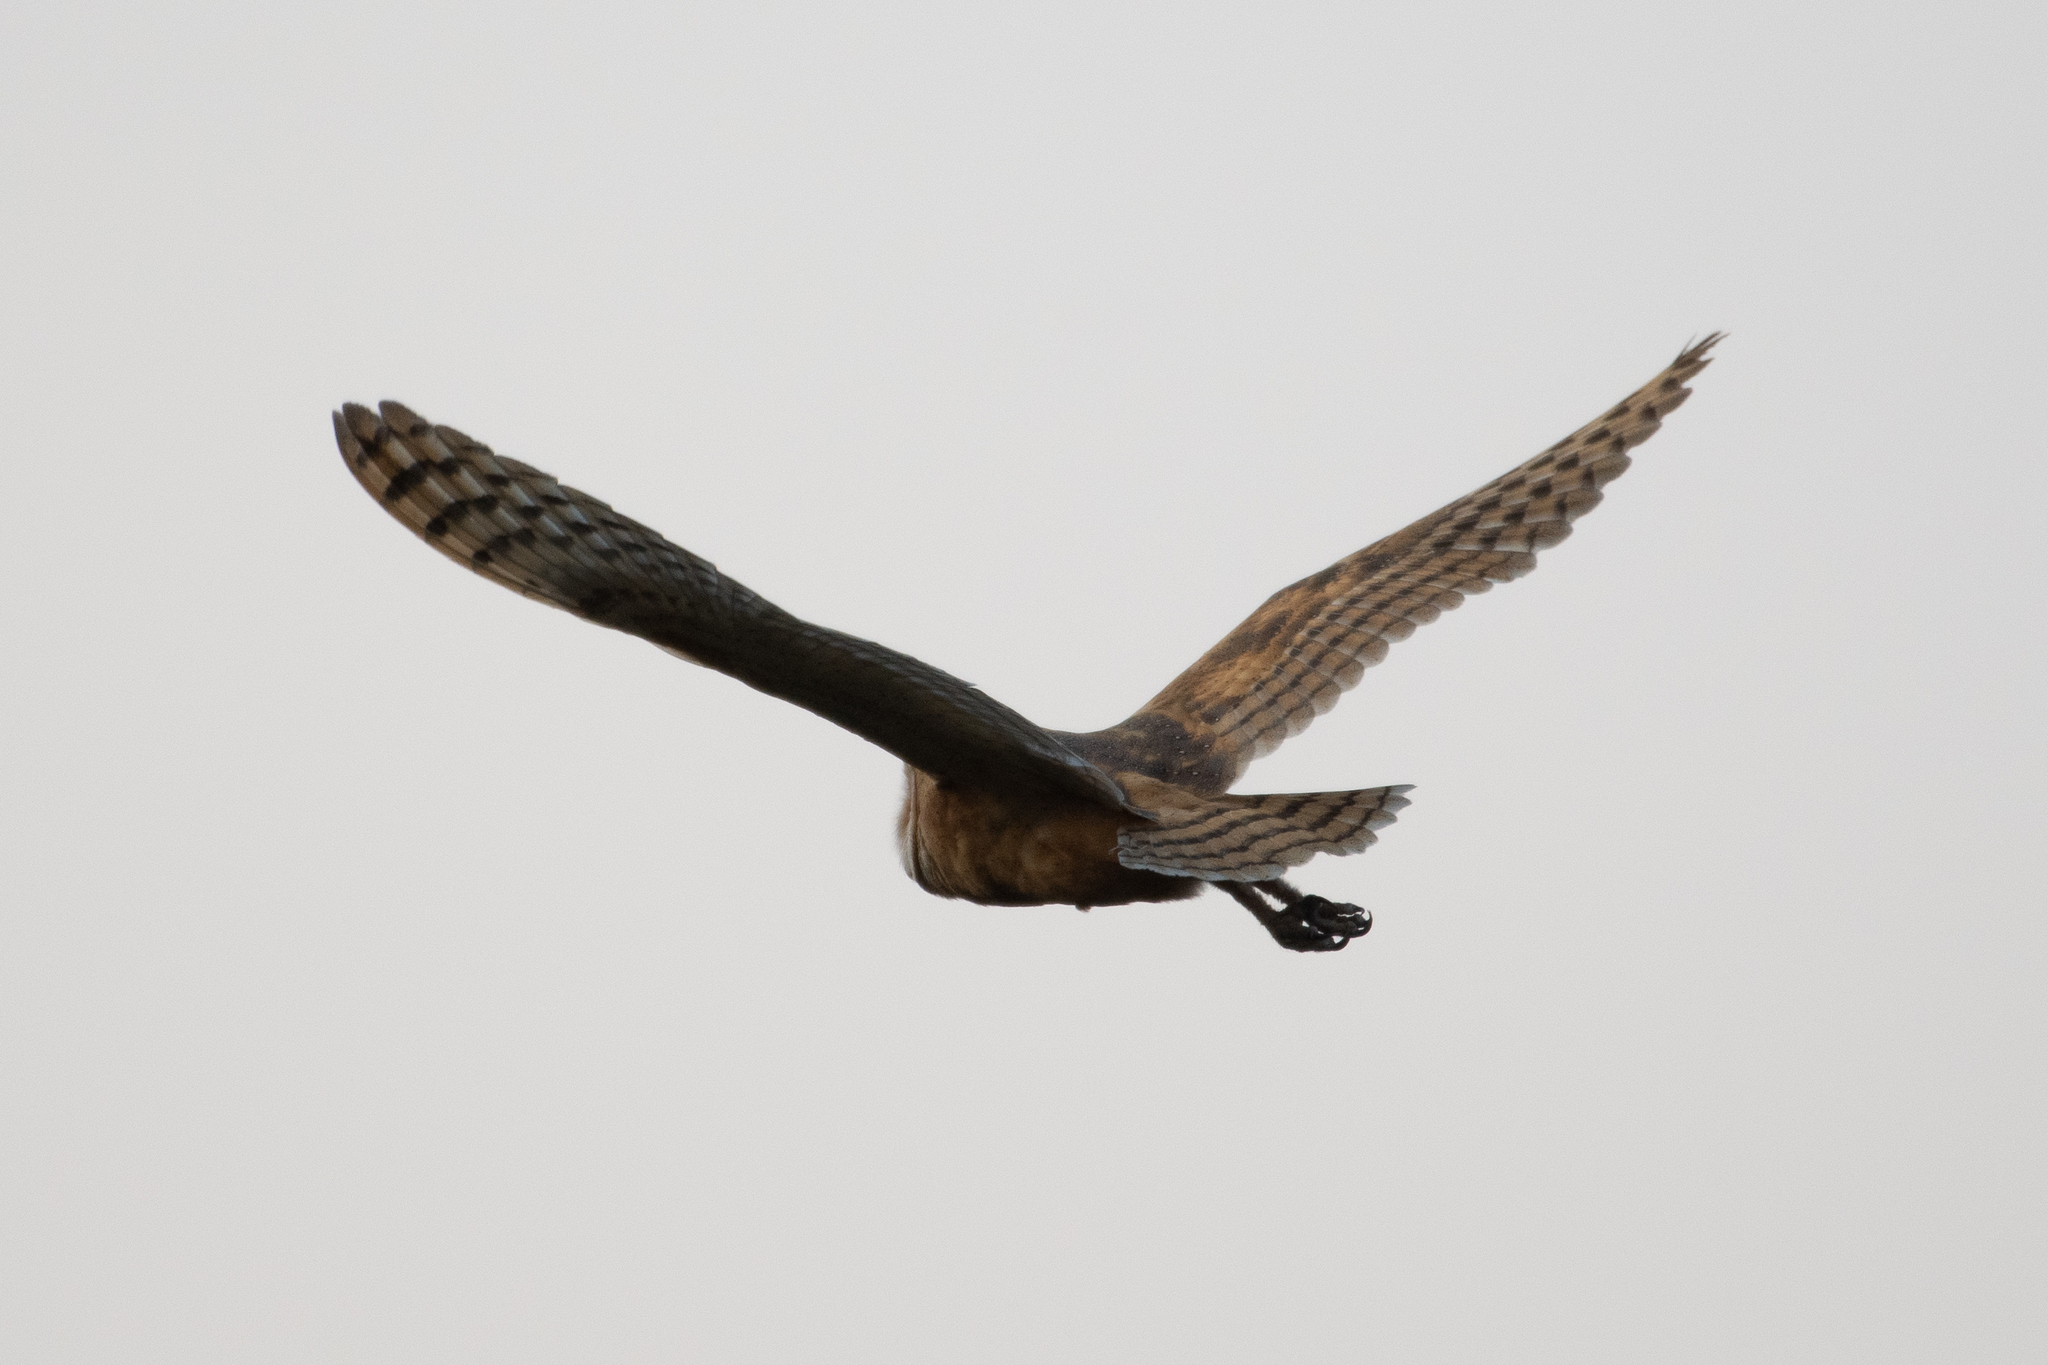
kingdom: Animalia
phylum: Chordata
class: Aves
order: Strigiformes
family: Tytonidae
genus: Tyto
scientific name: Tyto alba
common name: Barn owl
